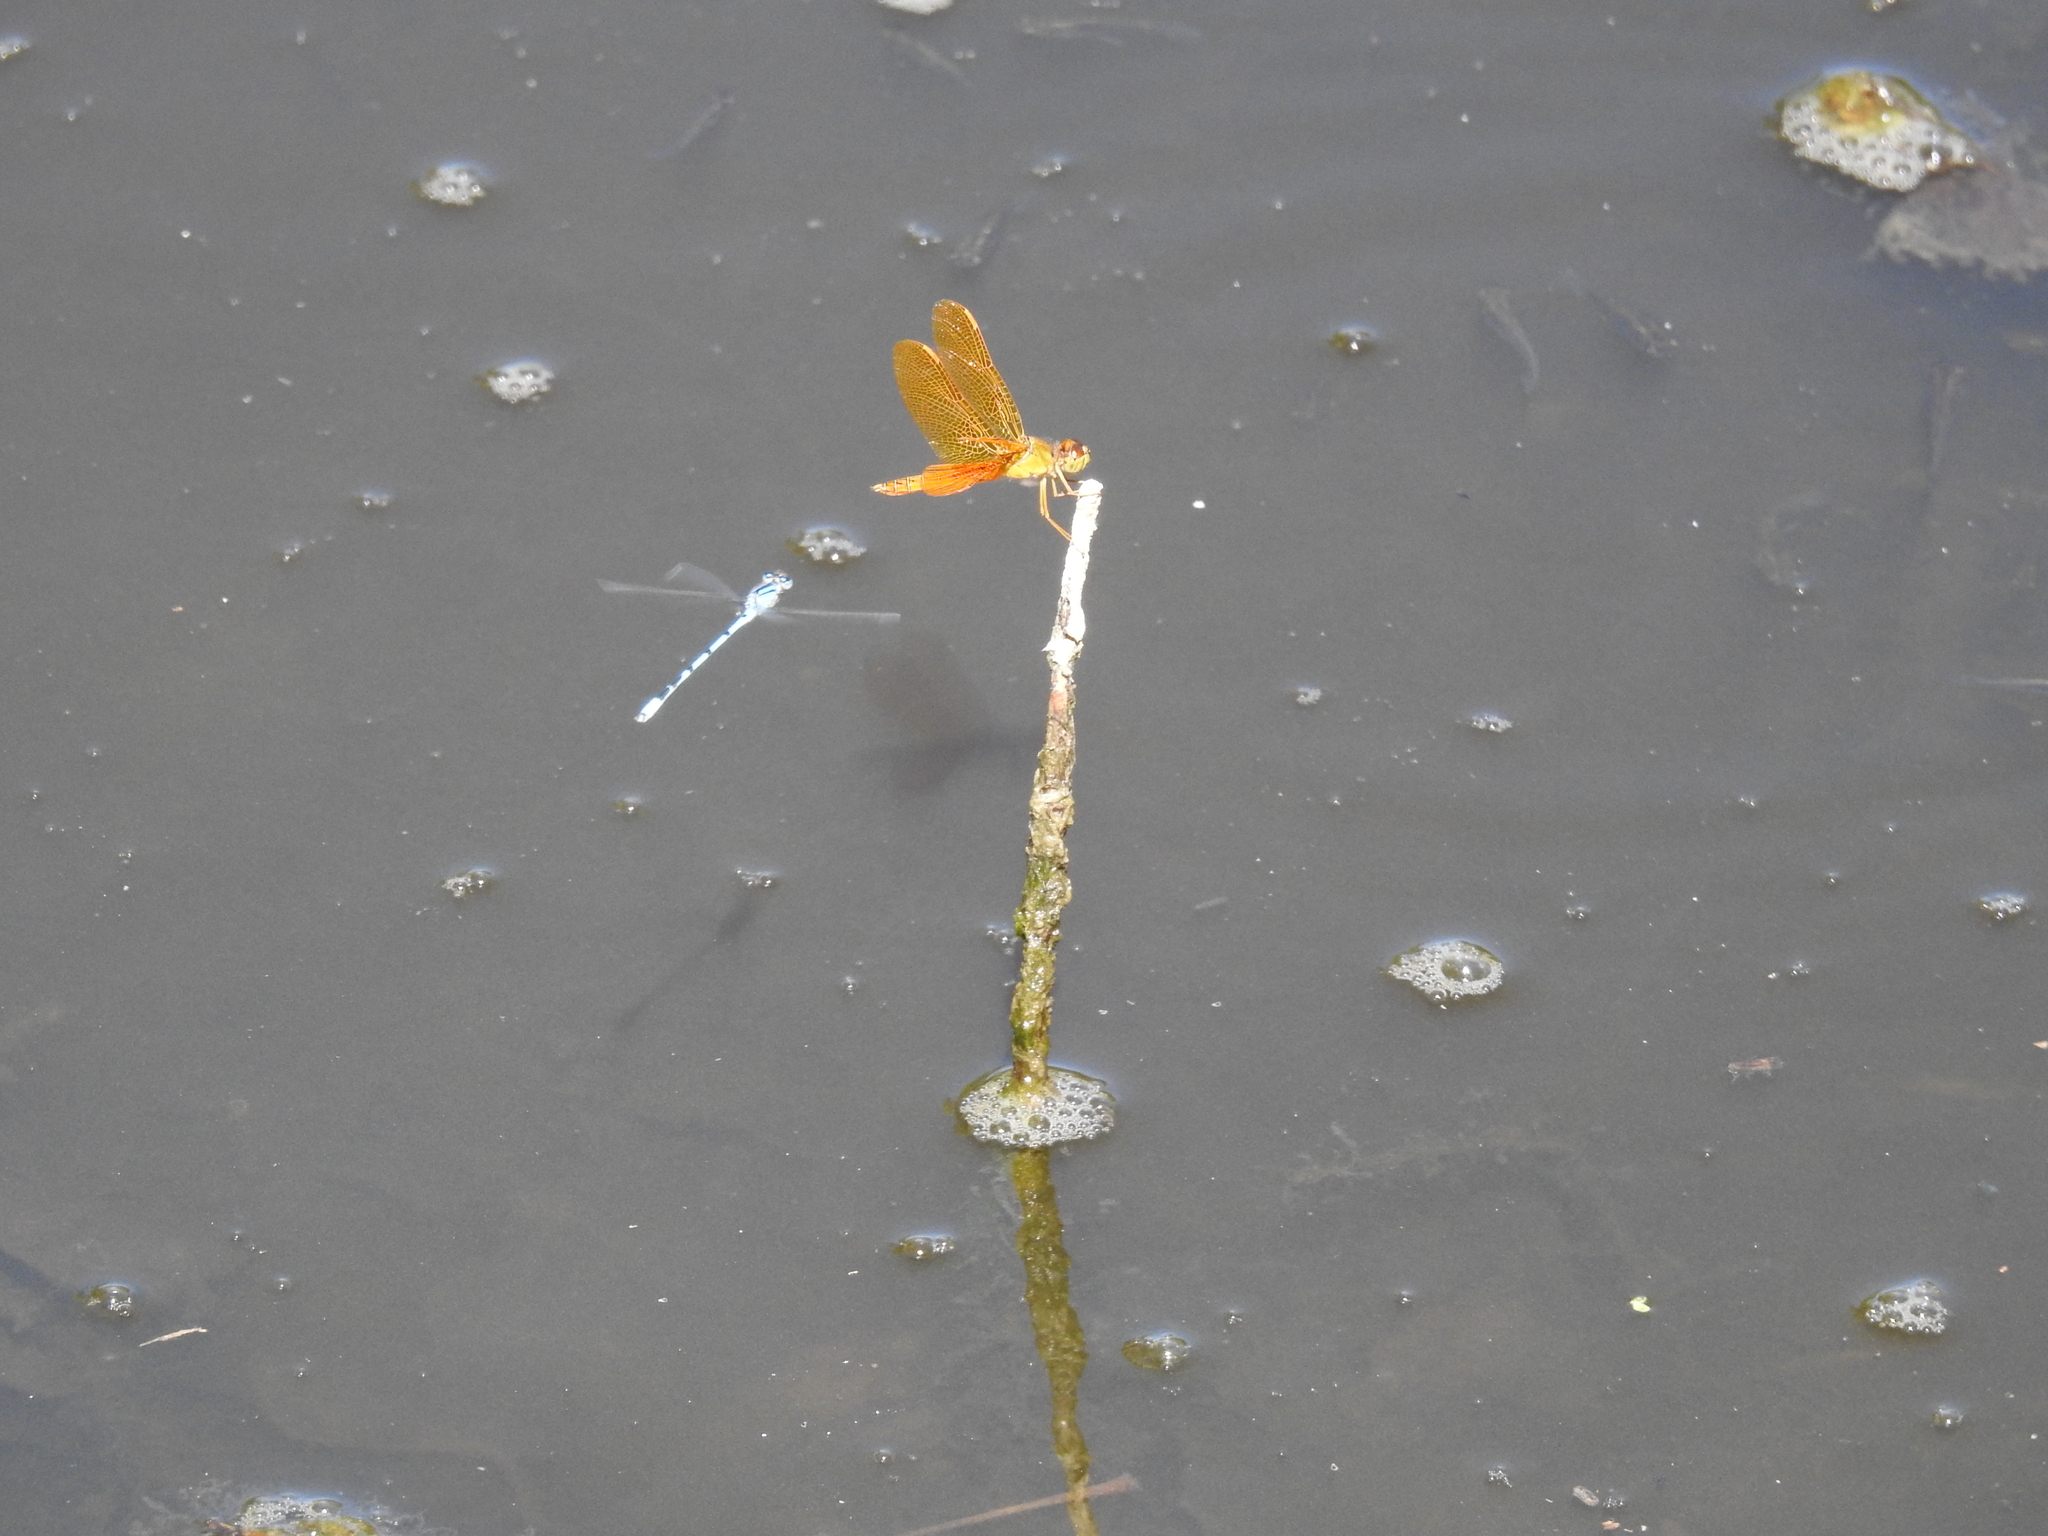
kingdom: Animalia
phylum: Arthropoda
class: Insecta
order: Odonata
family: Libellulidae
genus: Perithemis
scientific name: Perithemis intensa
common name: Mexican amberwing
